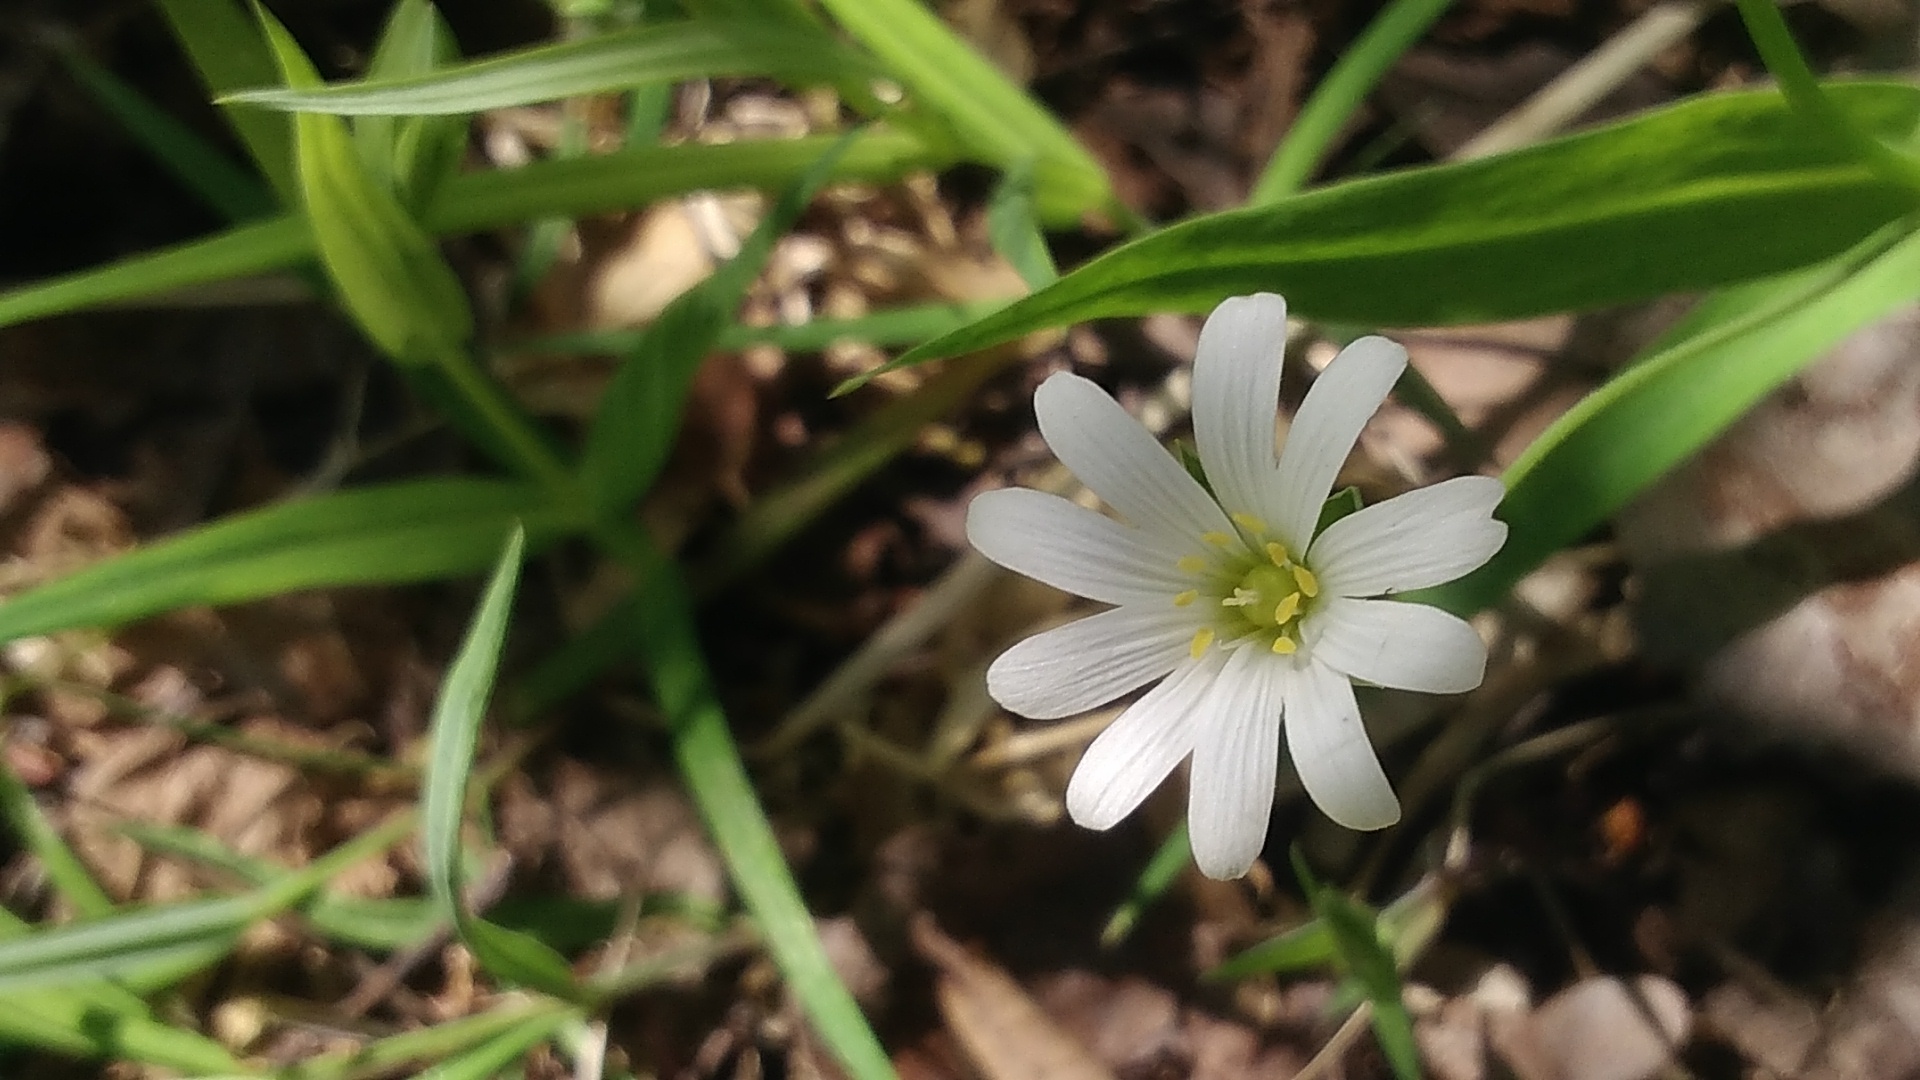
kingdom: Plantae
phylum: Tracheophyta
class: Magnoliopsida
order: Caryophyllales
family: Caryophyllaceae
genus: Rabelera
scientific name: Rabelera holostea
